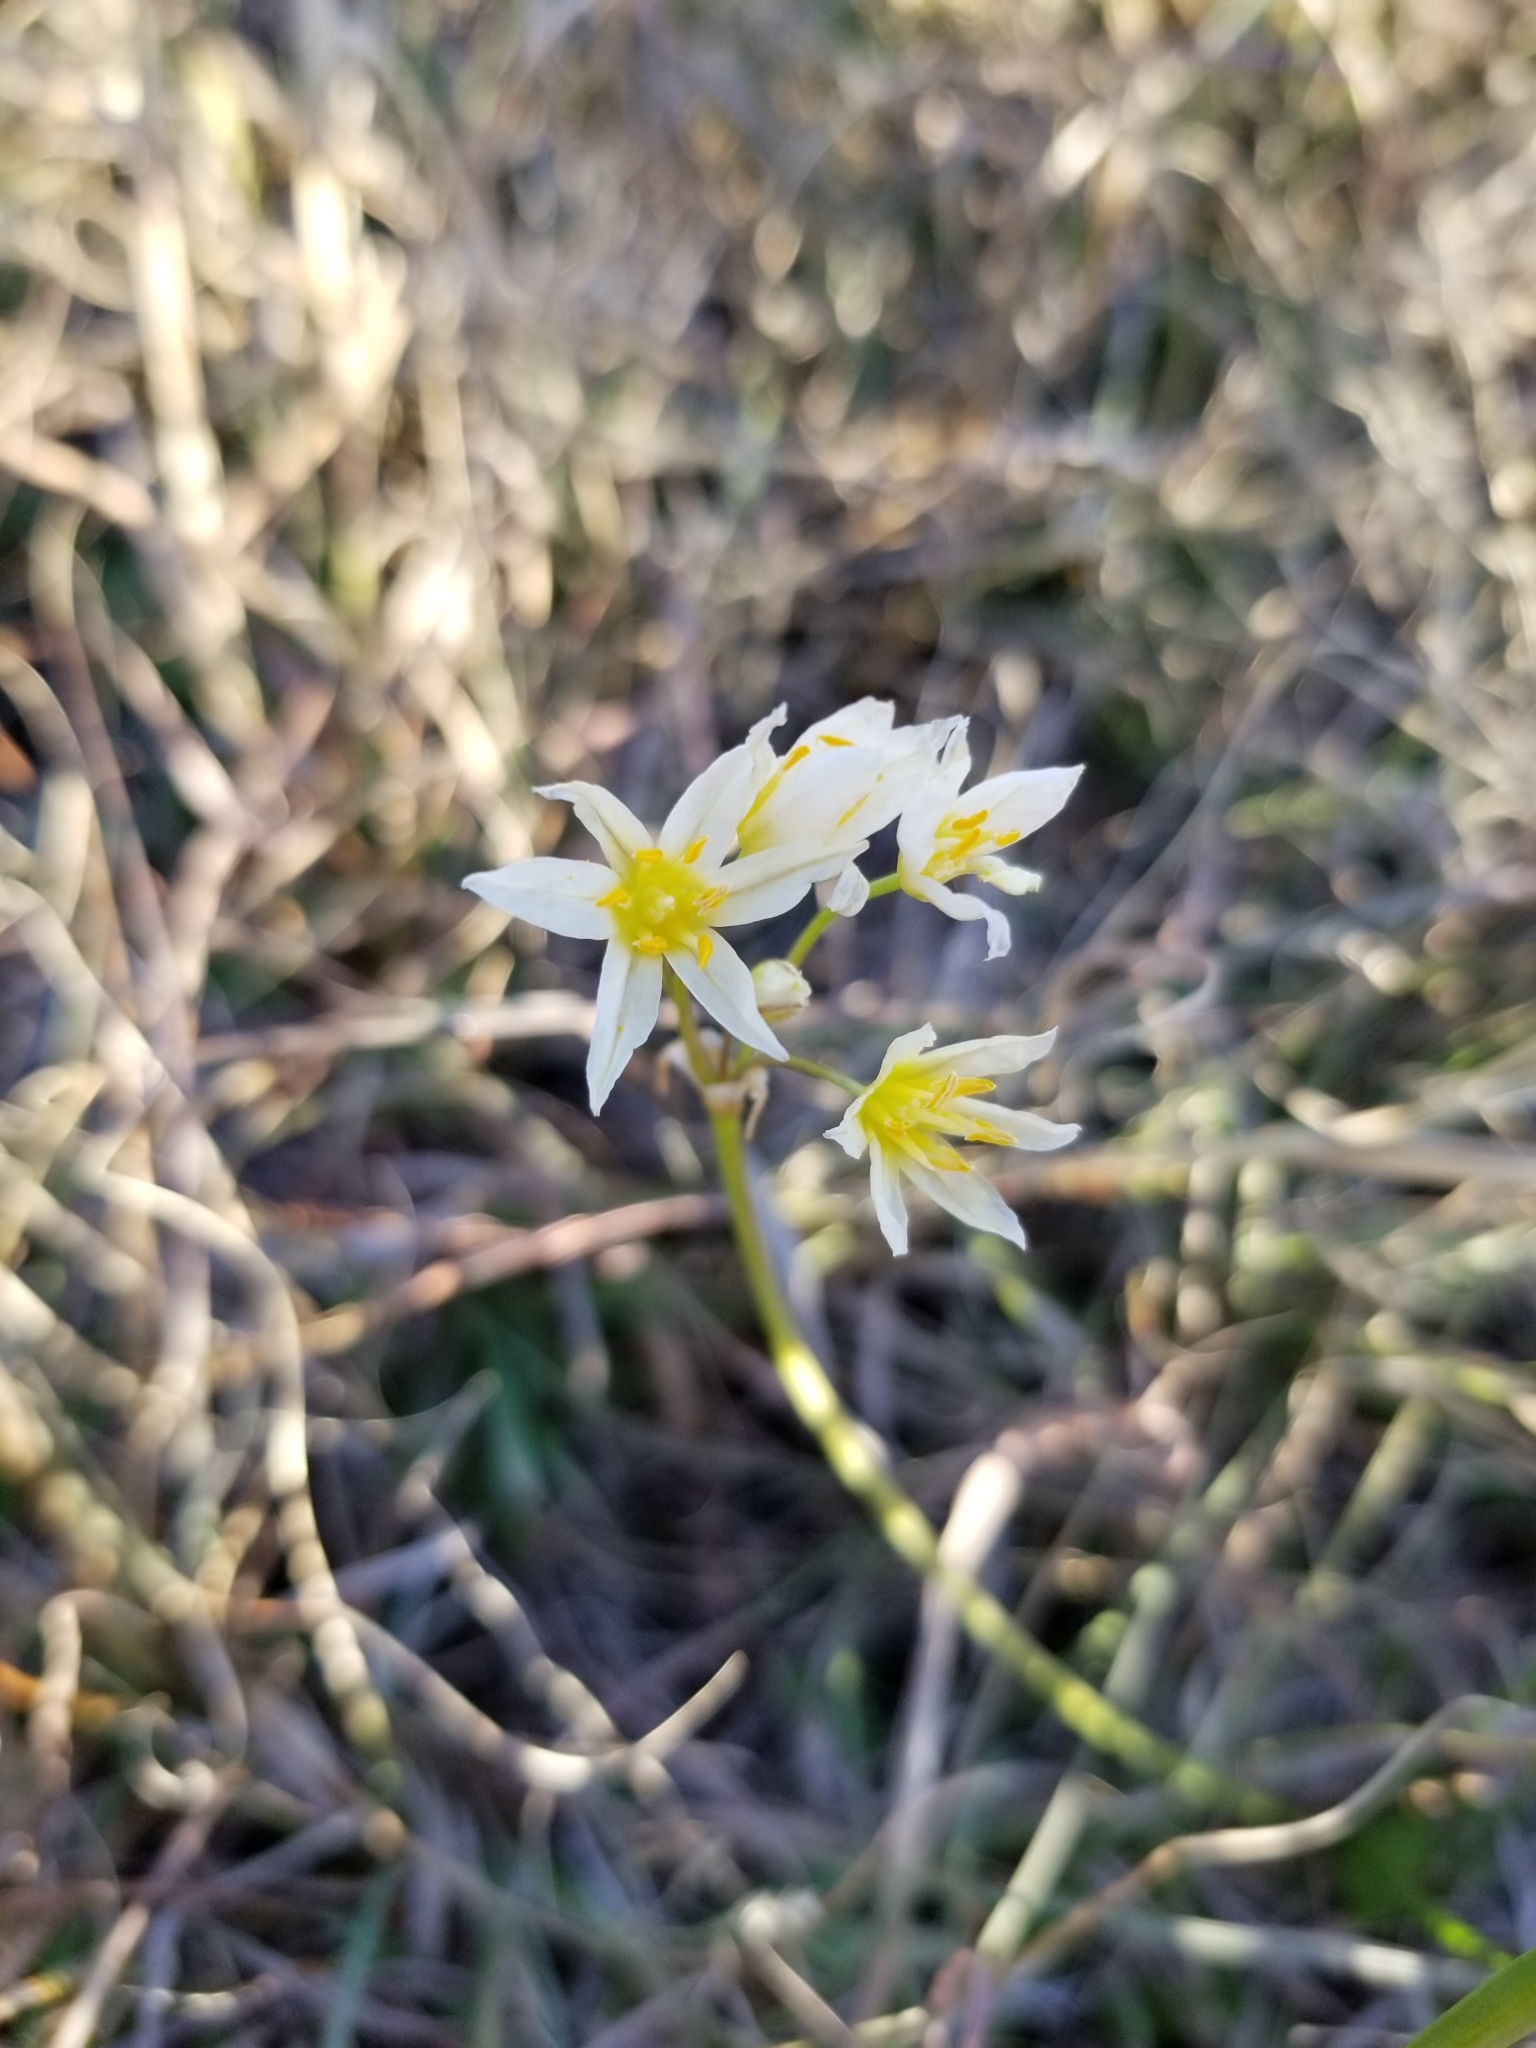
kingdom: Plantae
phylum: Tracheophyta
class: Liliopsida
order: Asparagales
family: Amaryllidaceae
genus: Nothoscordum
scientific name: Nothoscordum bivalve
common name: Crow-poison
